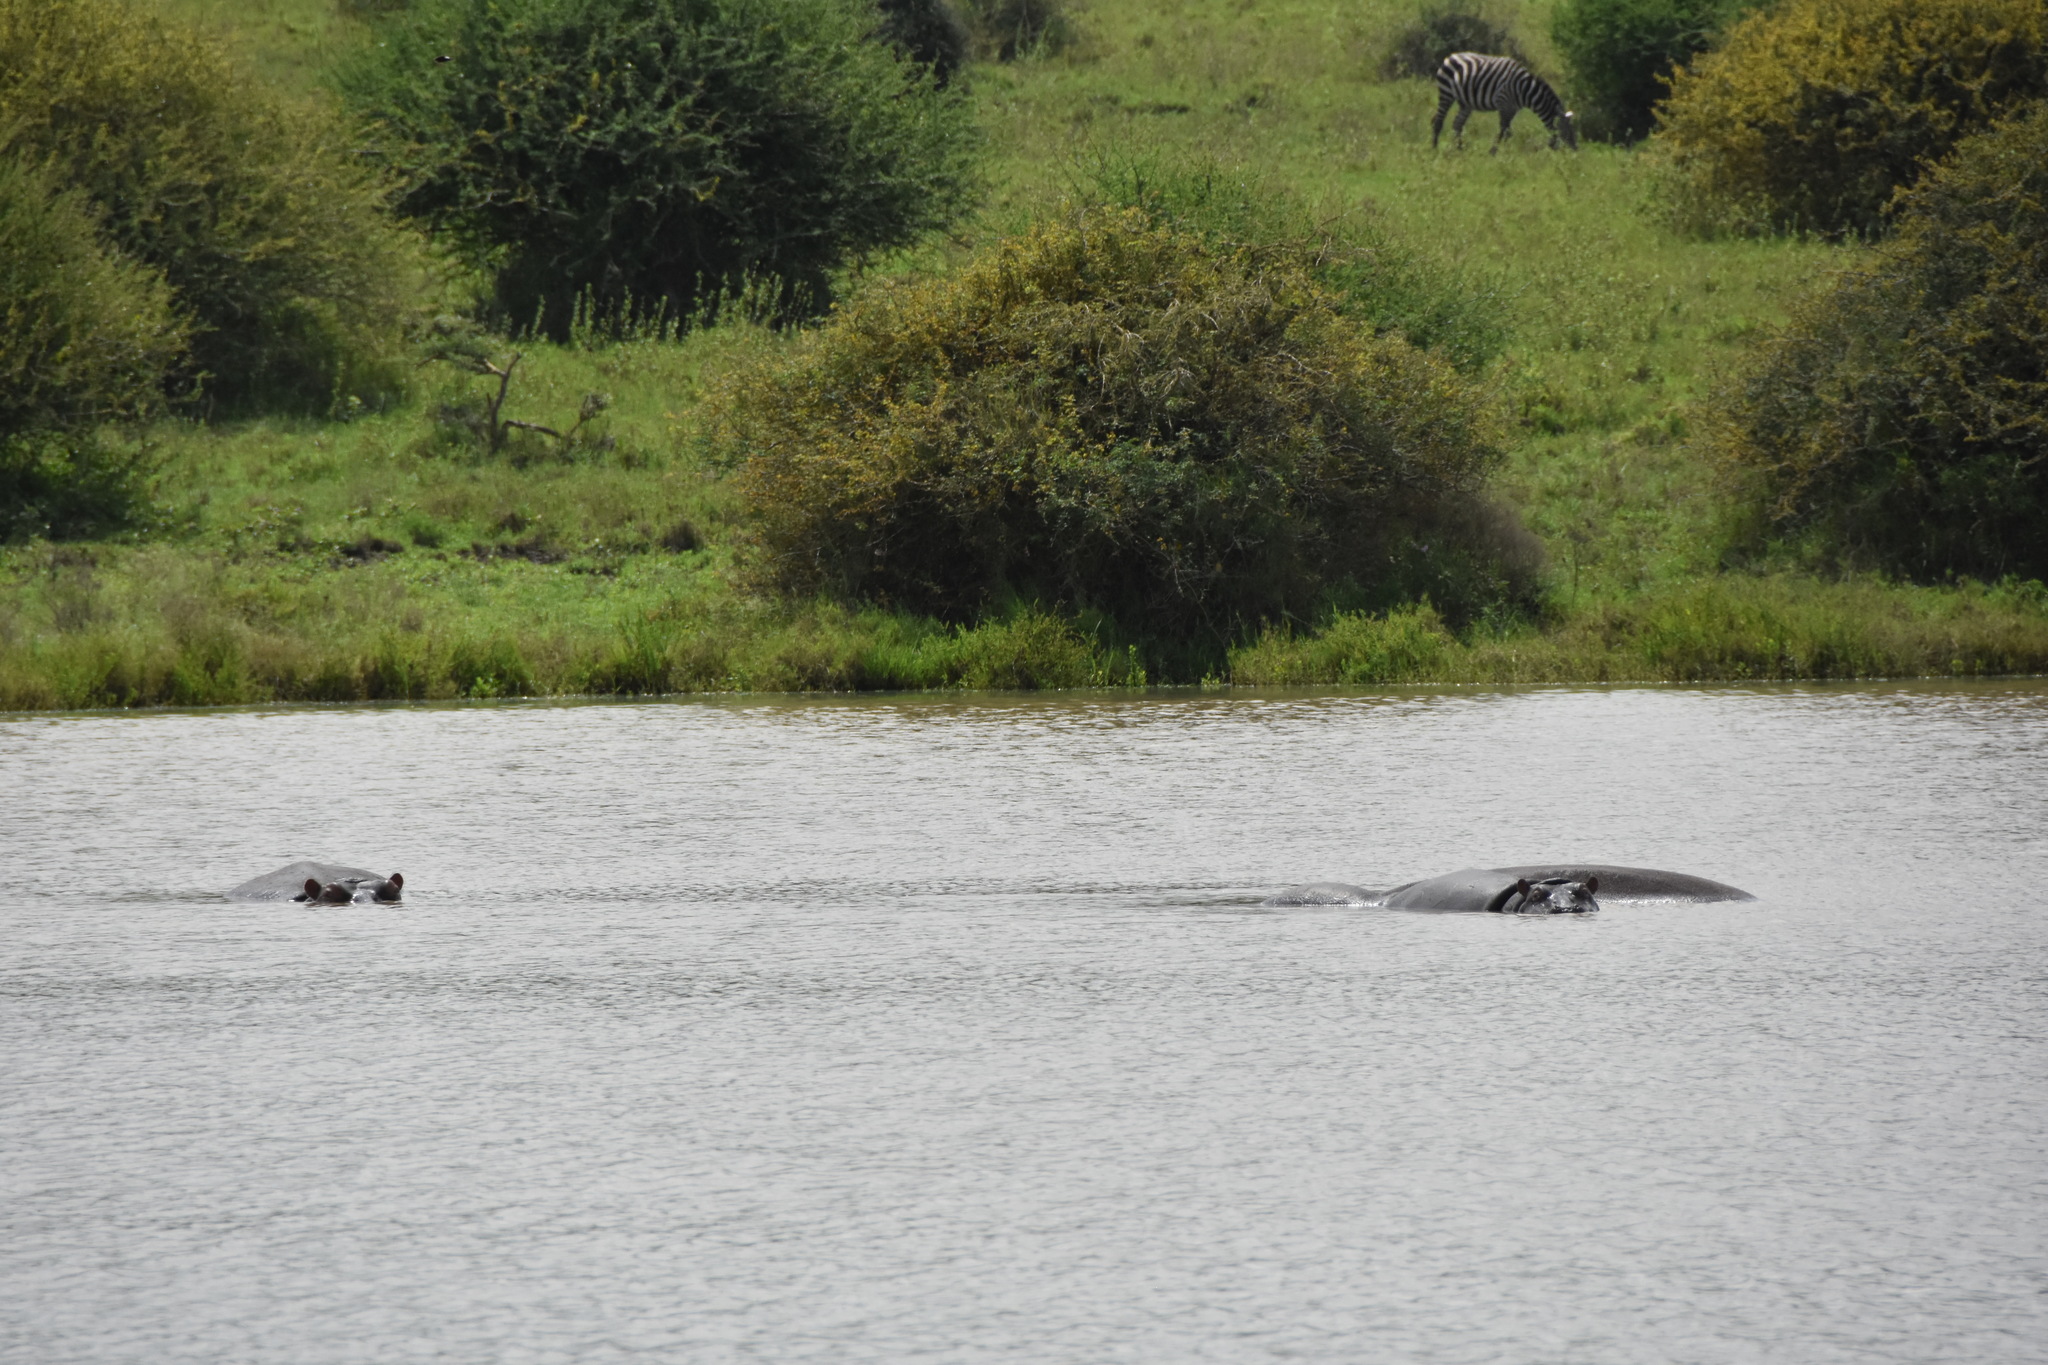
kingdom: Animalia
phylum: Chordata
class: Mammalia
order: Artiodactyla
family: Hippopotamidae
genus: Hippopotamus
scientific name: Hippopotamus amphibius
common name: Common hippopotamus
